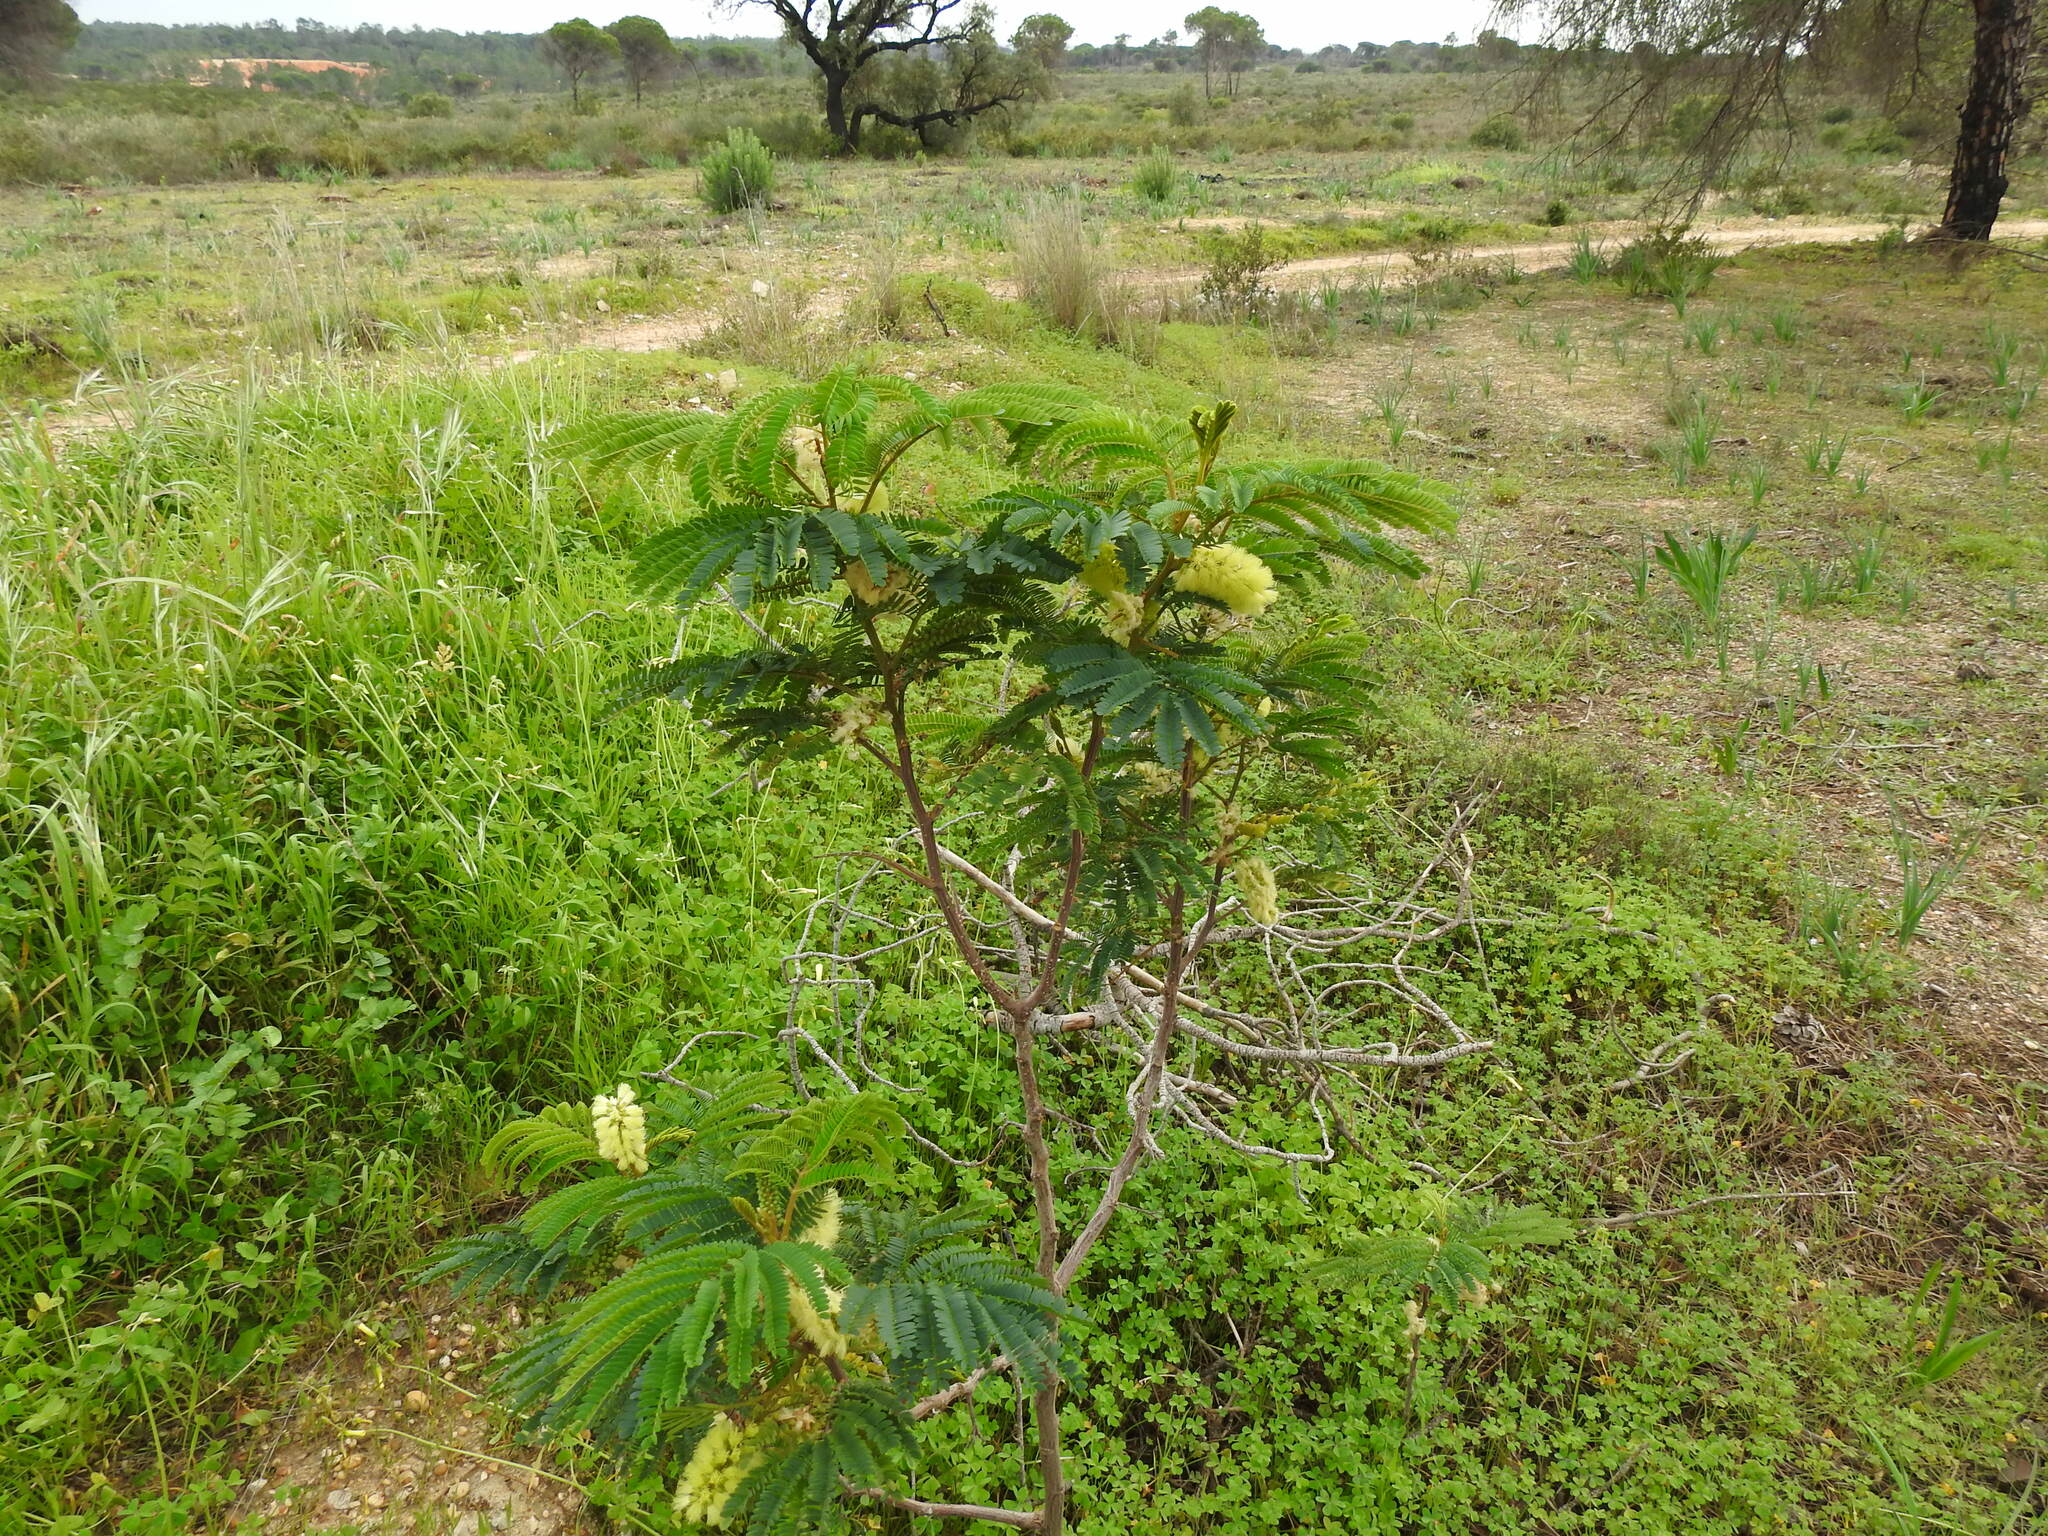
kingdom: Plantae
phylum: Tracheophyta
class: Magnoliopsida
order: Fabales
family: Fabaceae
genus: Paraserianthes
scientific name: Paraserianthes lophantha
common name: Plume albizia
